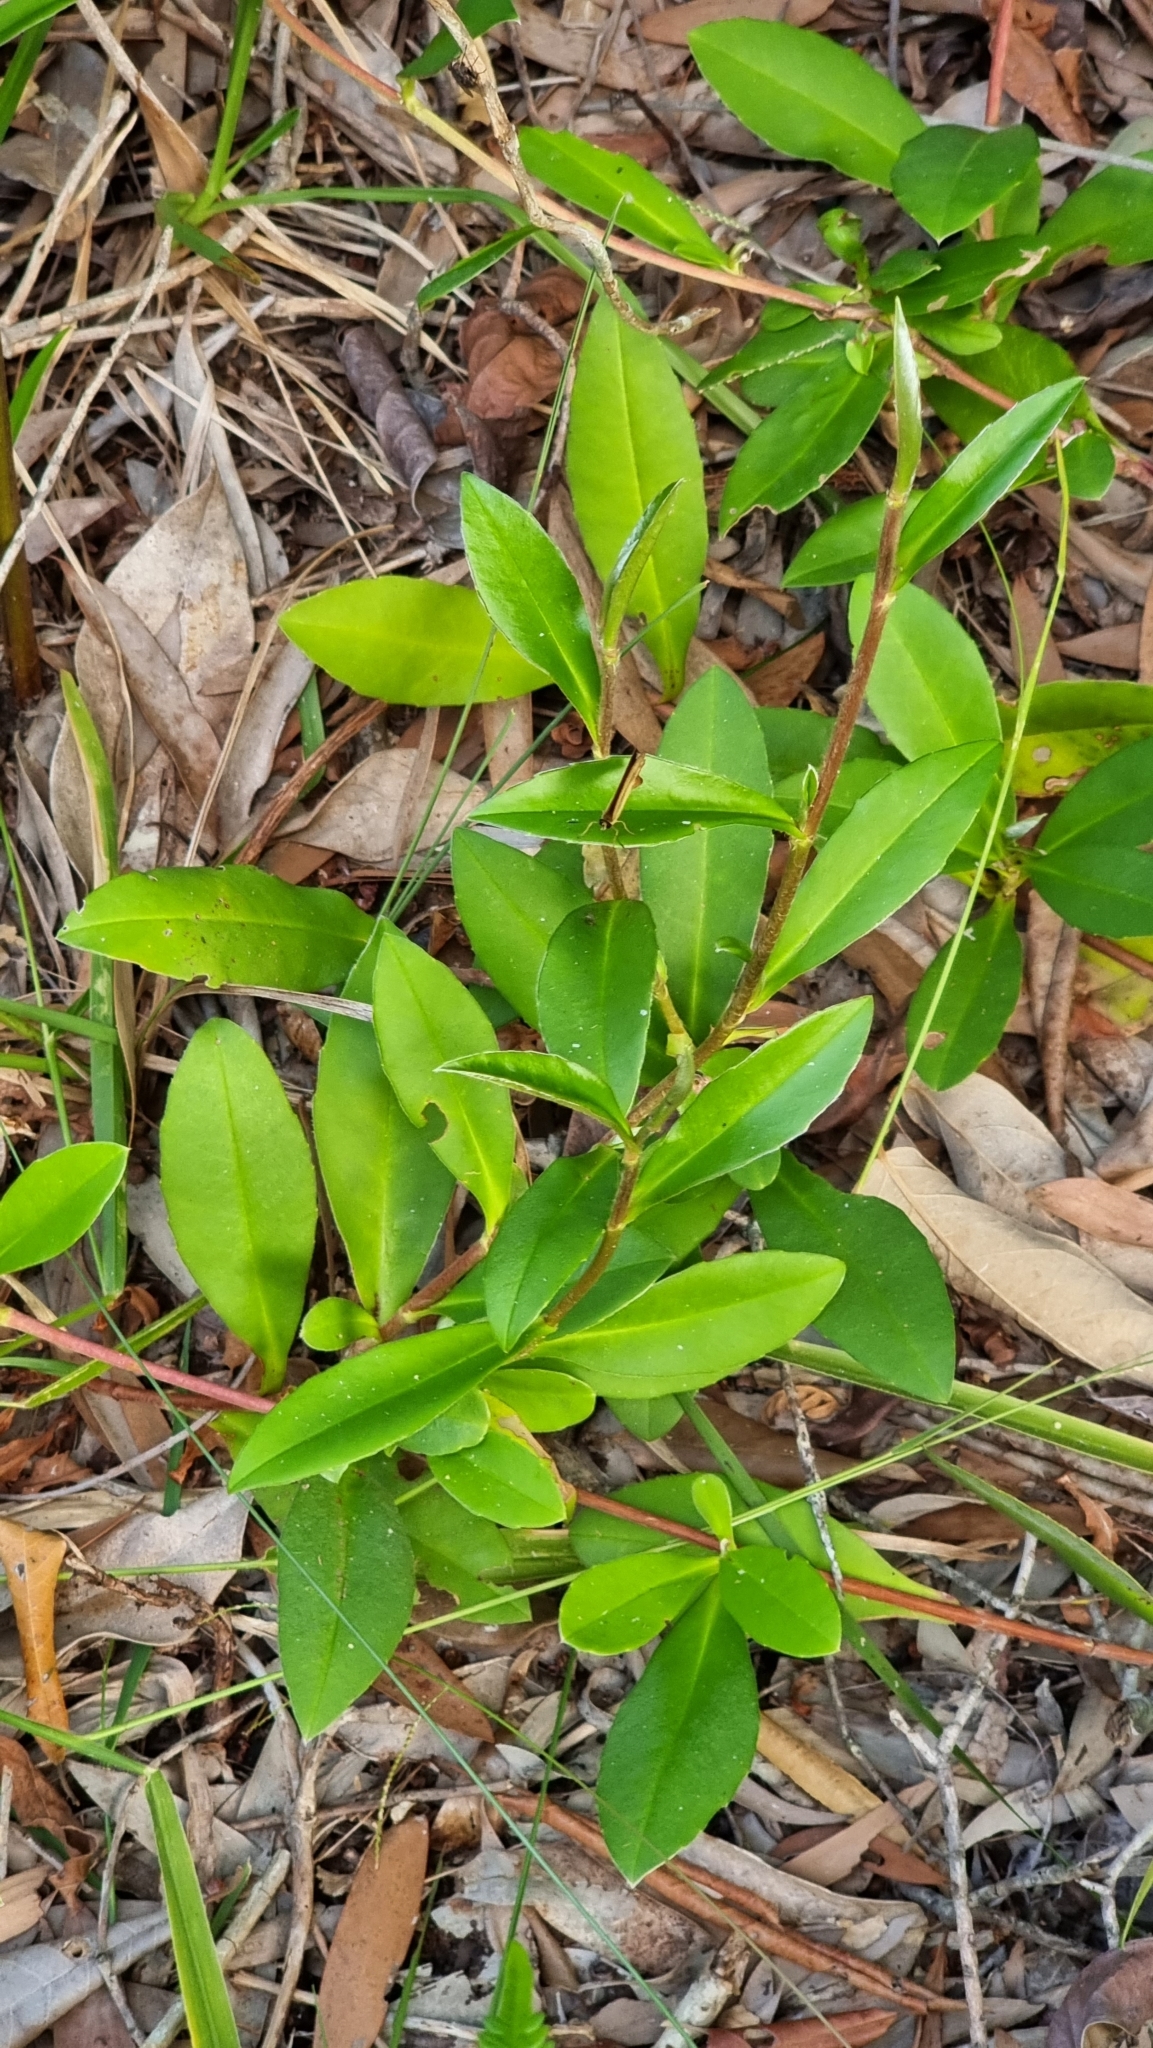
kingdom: Animalia
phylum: Arthropoda
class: Insecta
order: Lepidoptera
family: Nymphalidae
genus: Hypocysta
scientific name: Hypocysta metirius
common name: Brown ringlet
